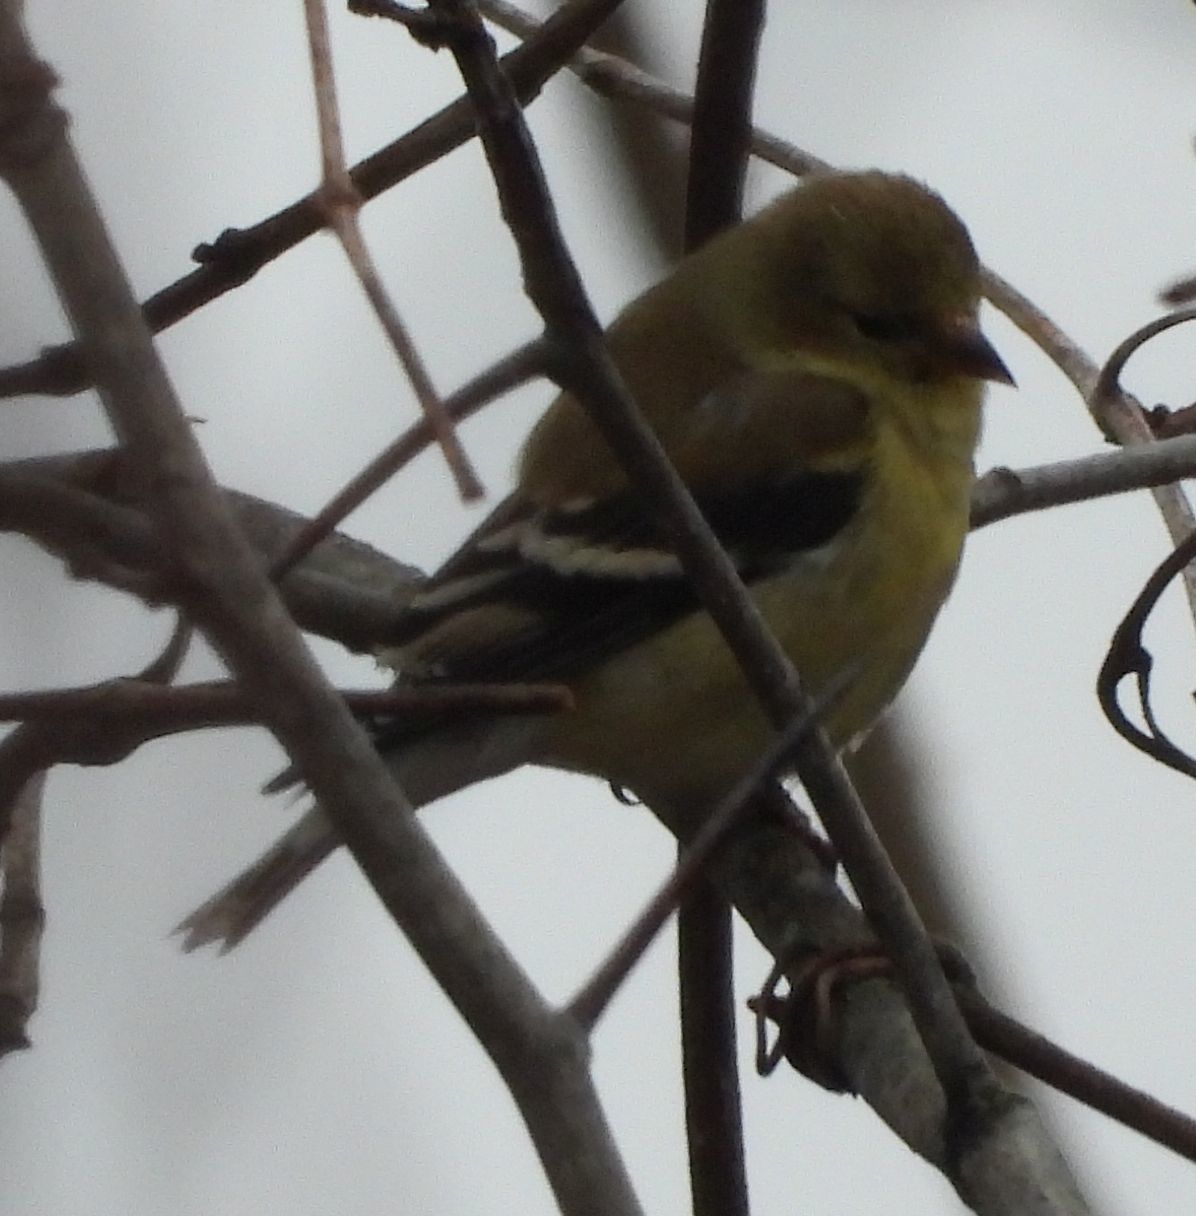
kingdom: Animalia
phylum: Chordata
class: Aves
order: Passeriformes
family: Fringillidae
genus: Spinus
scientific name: Spinus tristis
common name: American goldfinch
